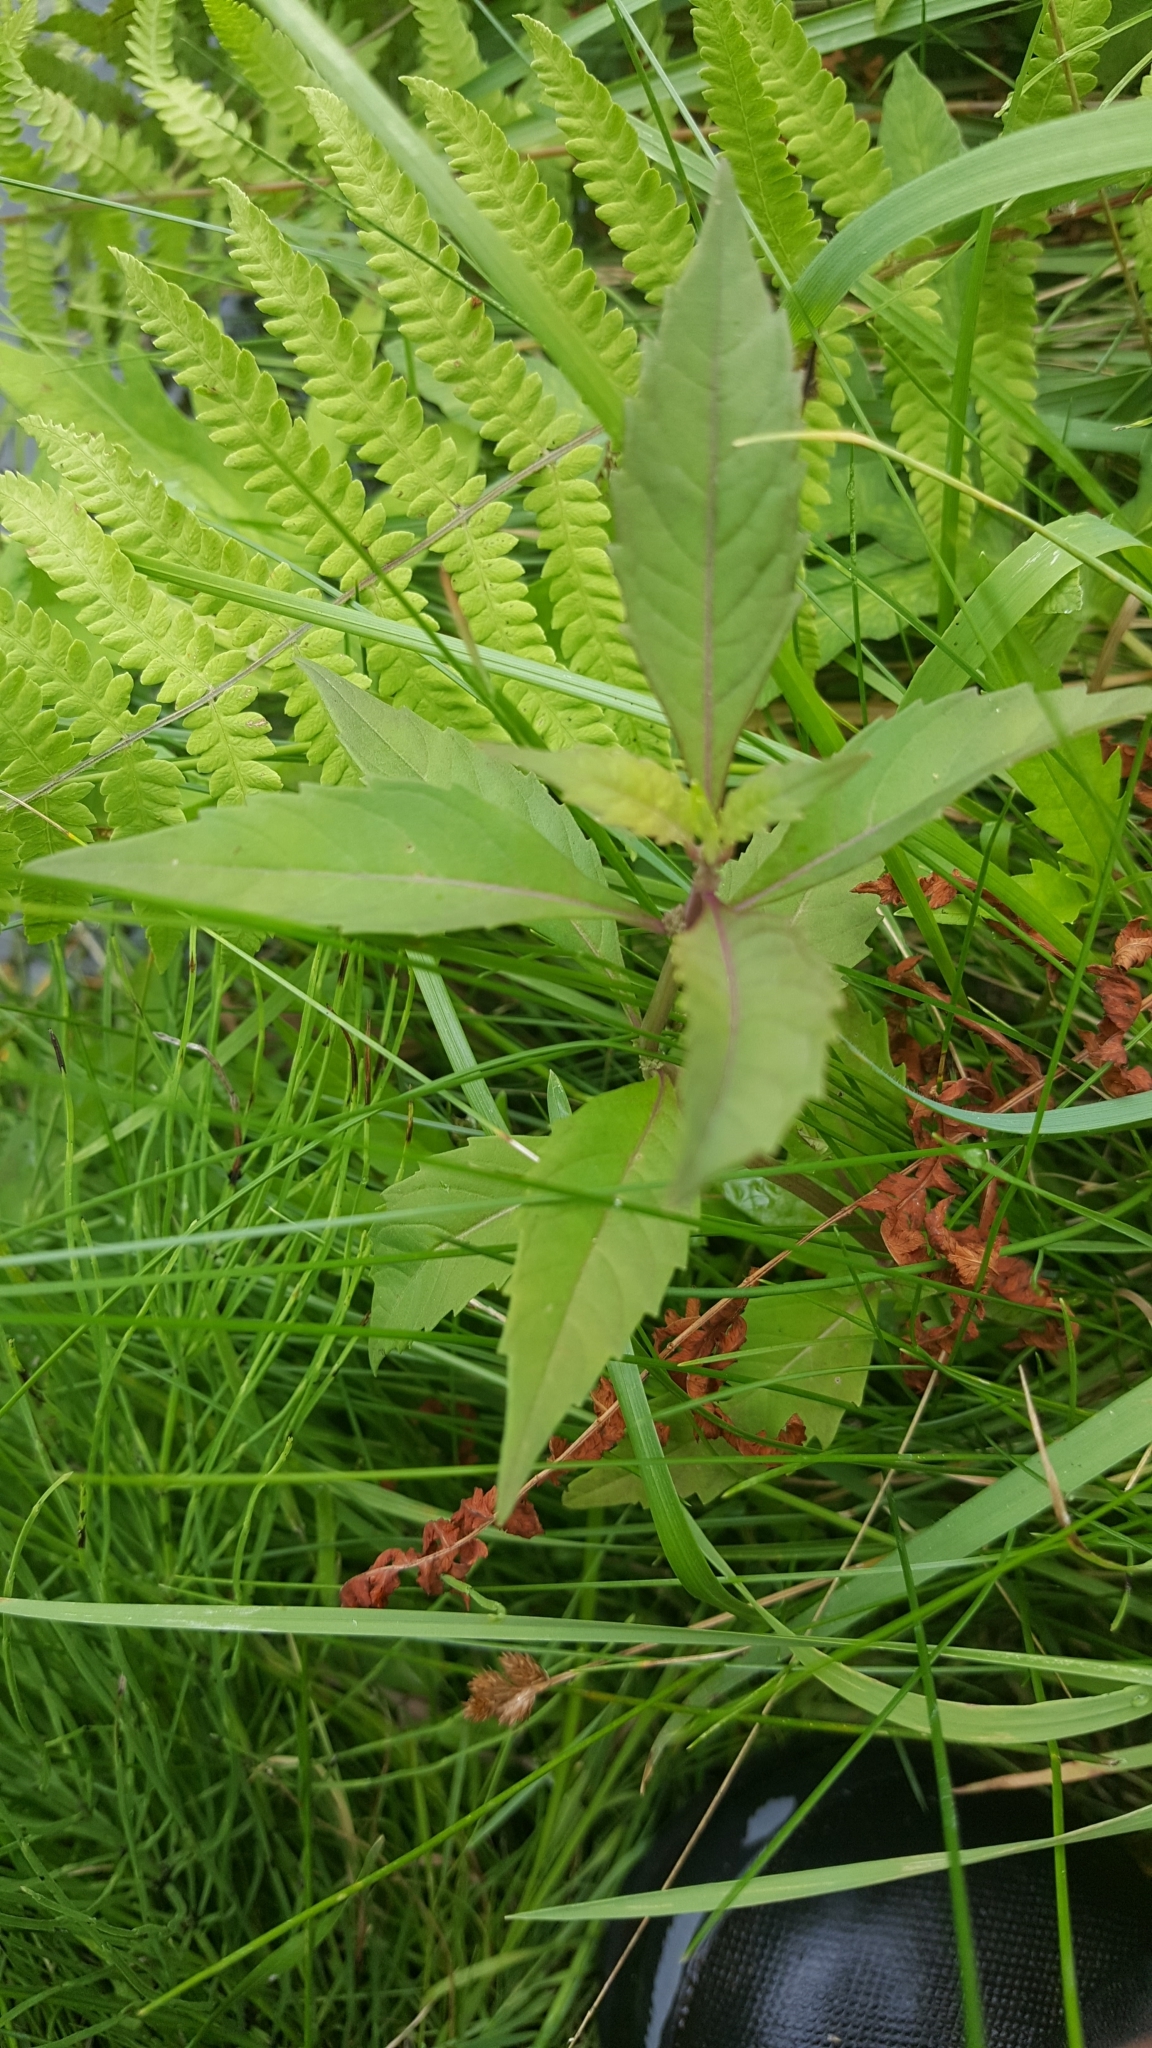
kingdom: Plantae
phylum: Tracheophyta
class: Magnoliopsida
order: Lamiales
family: Lamiaceae
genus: Lycopus
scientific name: Lycopus uniflorus
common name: Northern bugleweed
